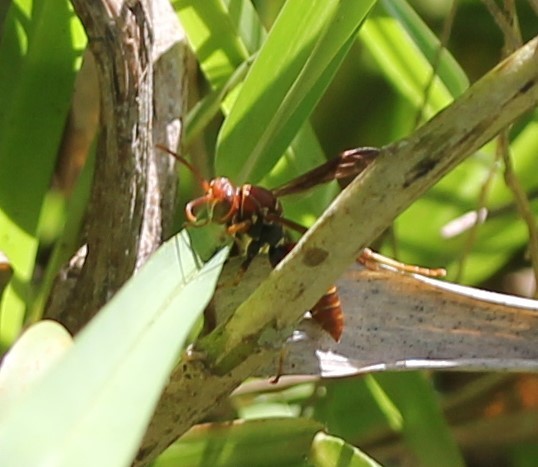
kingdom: Animalia
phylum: Arthropoda
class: Insecta
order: Hymenoptera
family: Eumenidae
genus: Polistes
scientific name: Polistes dorsalis
